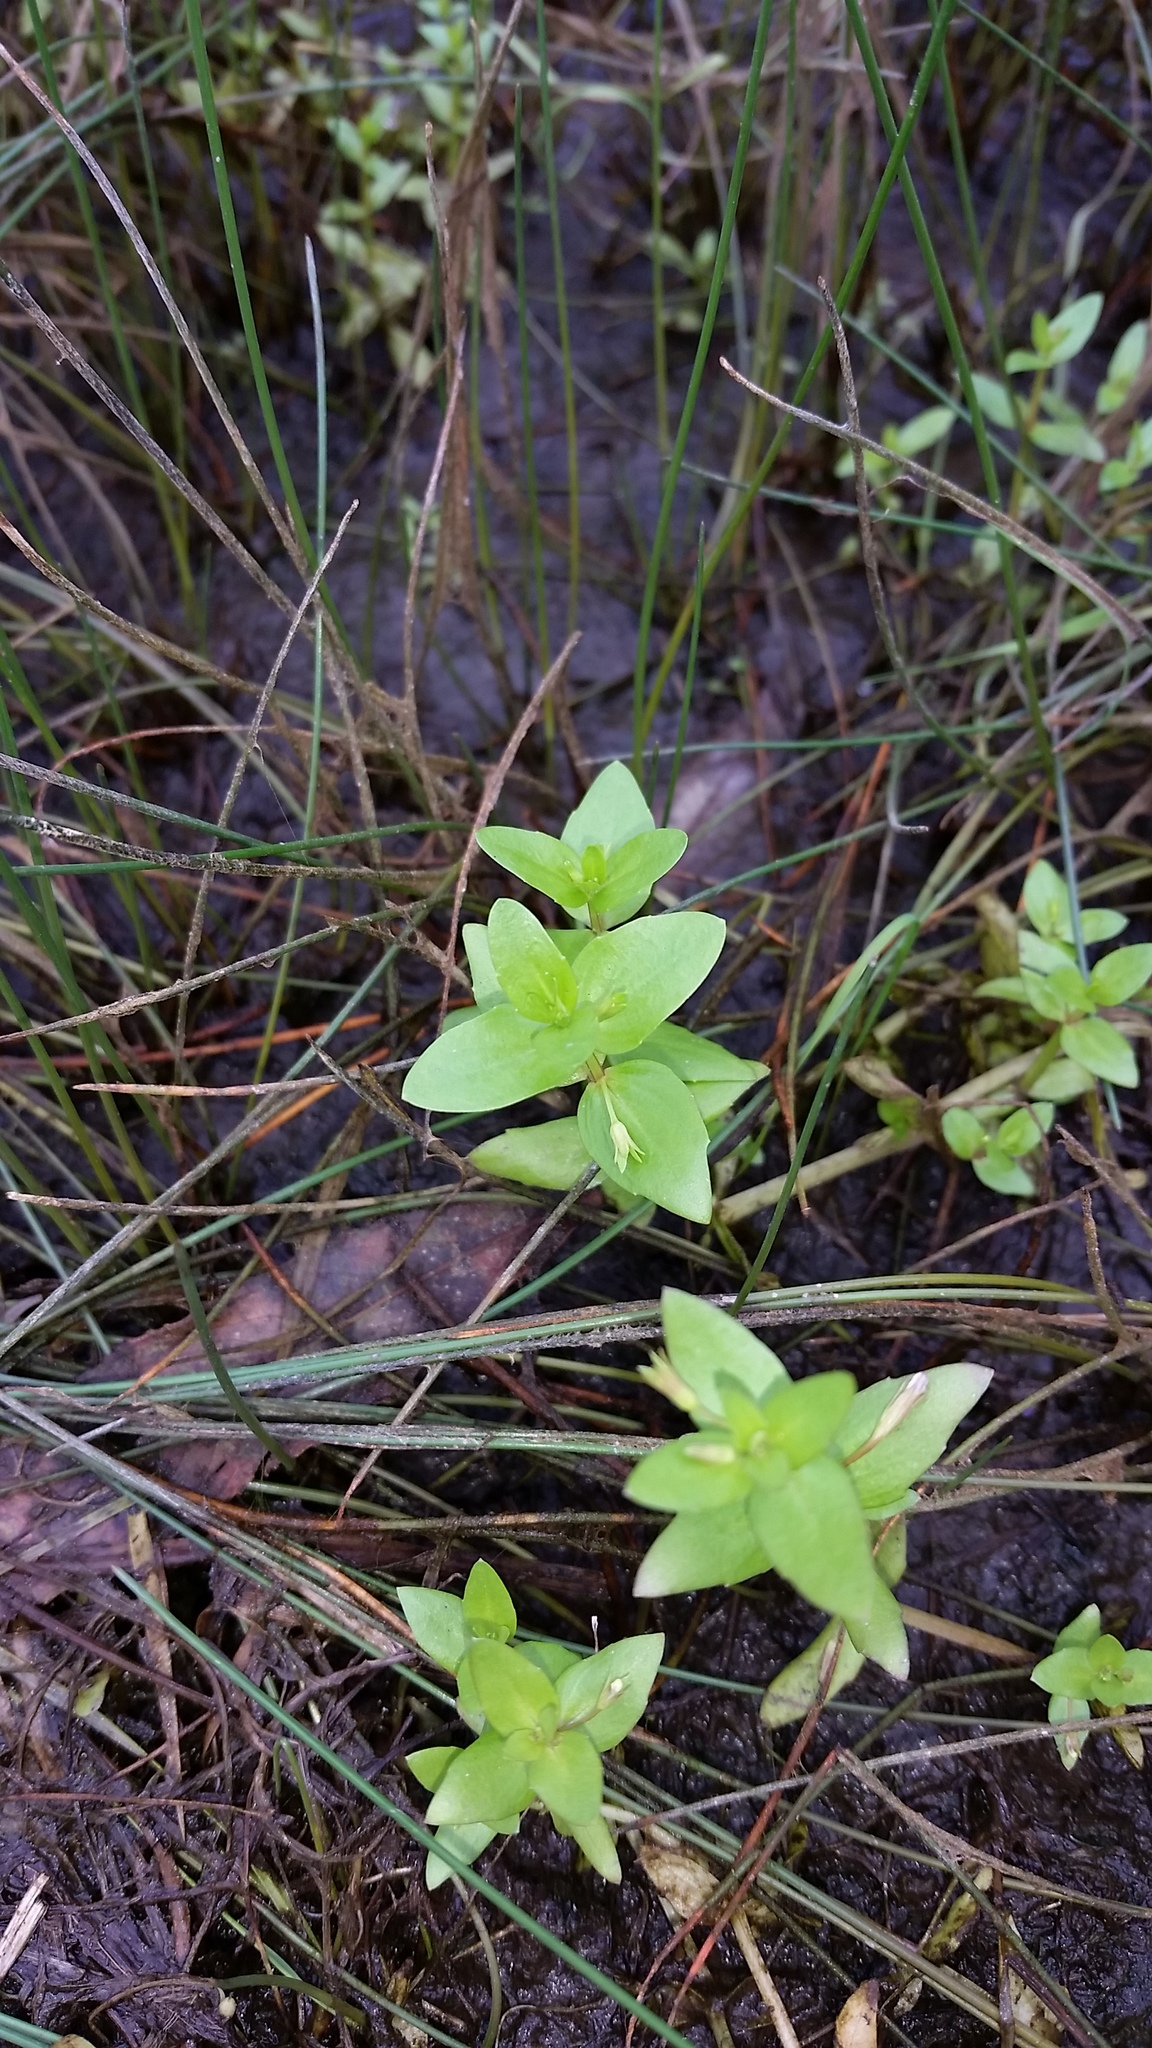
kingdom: Plantae
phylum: Tracheophyta
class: Magnoliopsida
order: Lamiales
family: Linderniaceae
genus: Lindernia
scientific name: Lindernia dubia
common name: Annual false pimpernel
